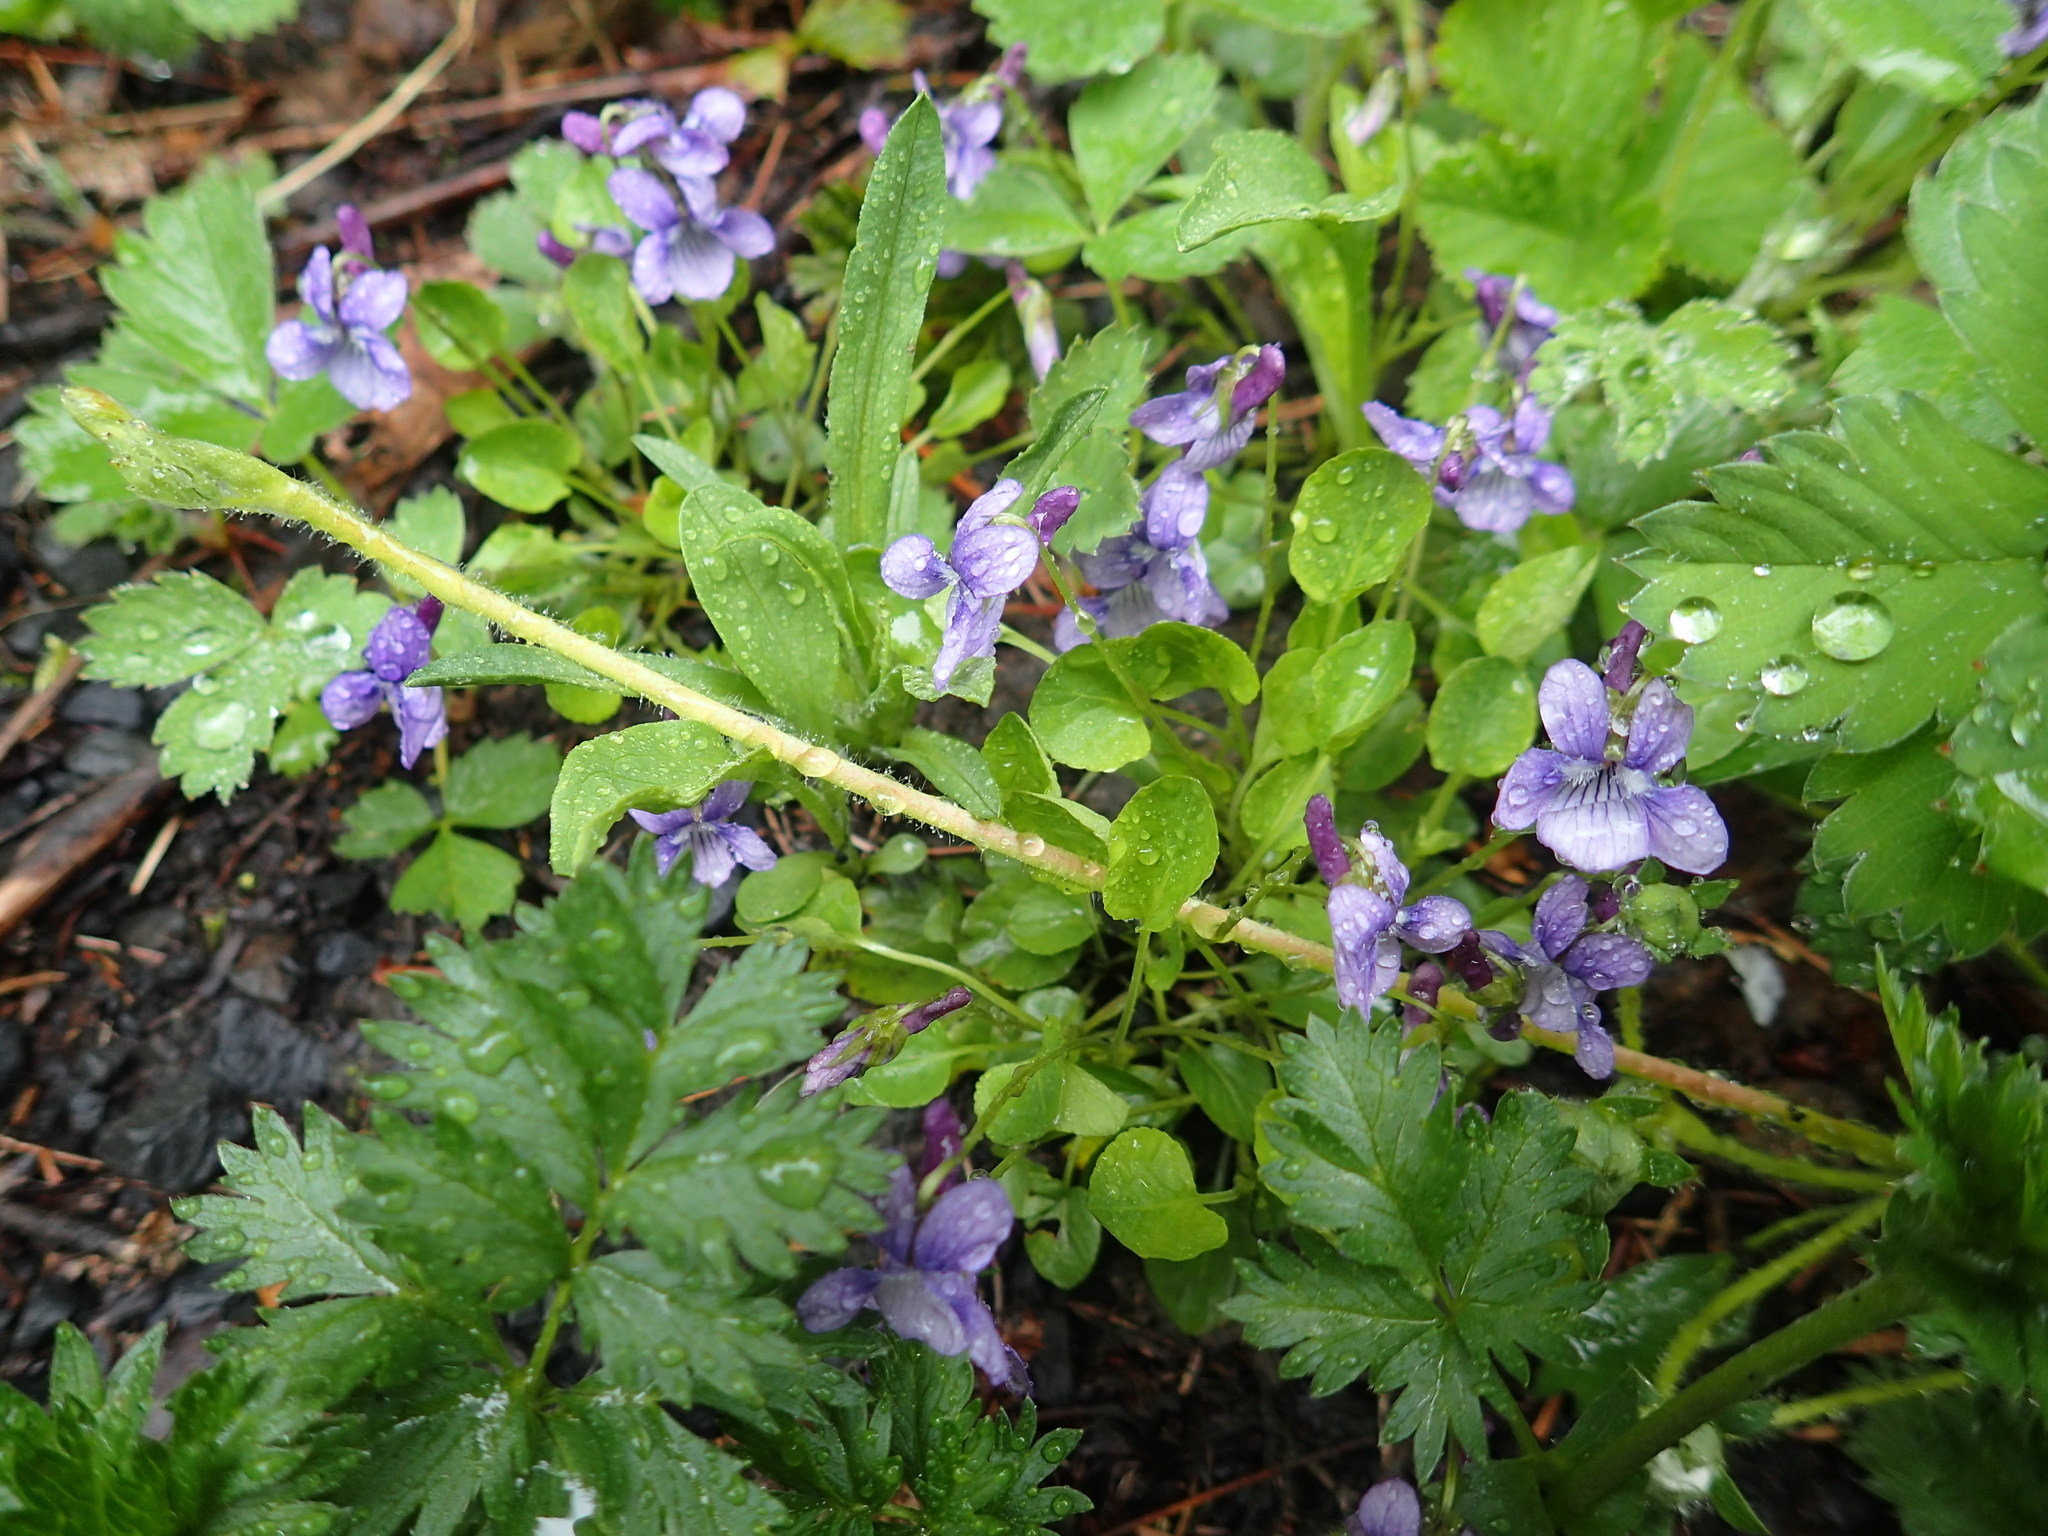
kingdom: Plantae
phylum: Tracheophyta
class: Magnoliopsida
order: Malpighiales
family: Violaceae
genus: Viola
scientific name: Viola adunca
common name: Sand violet
